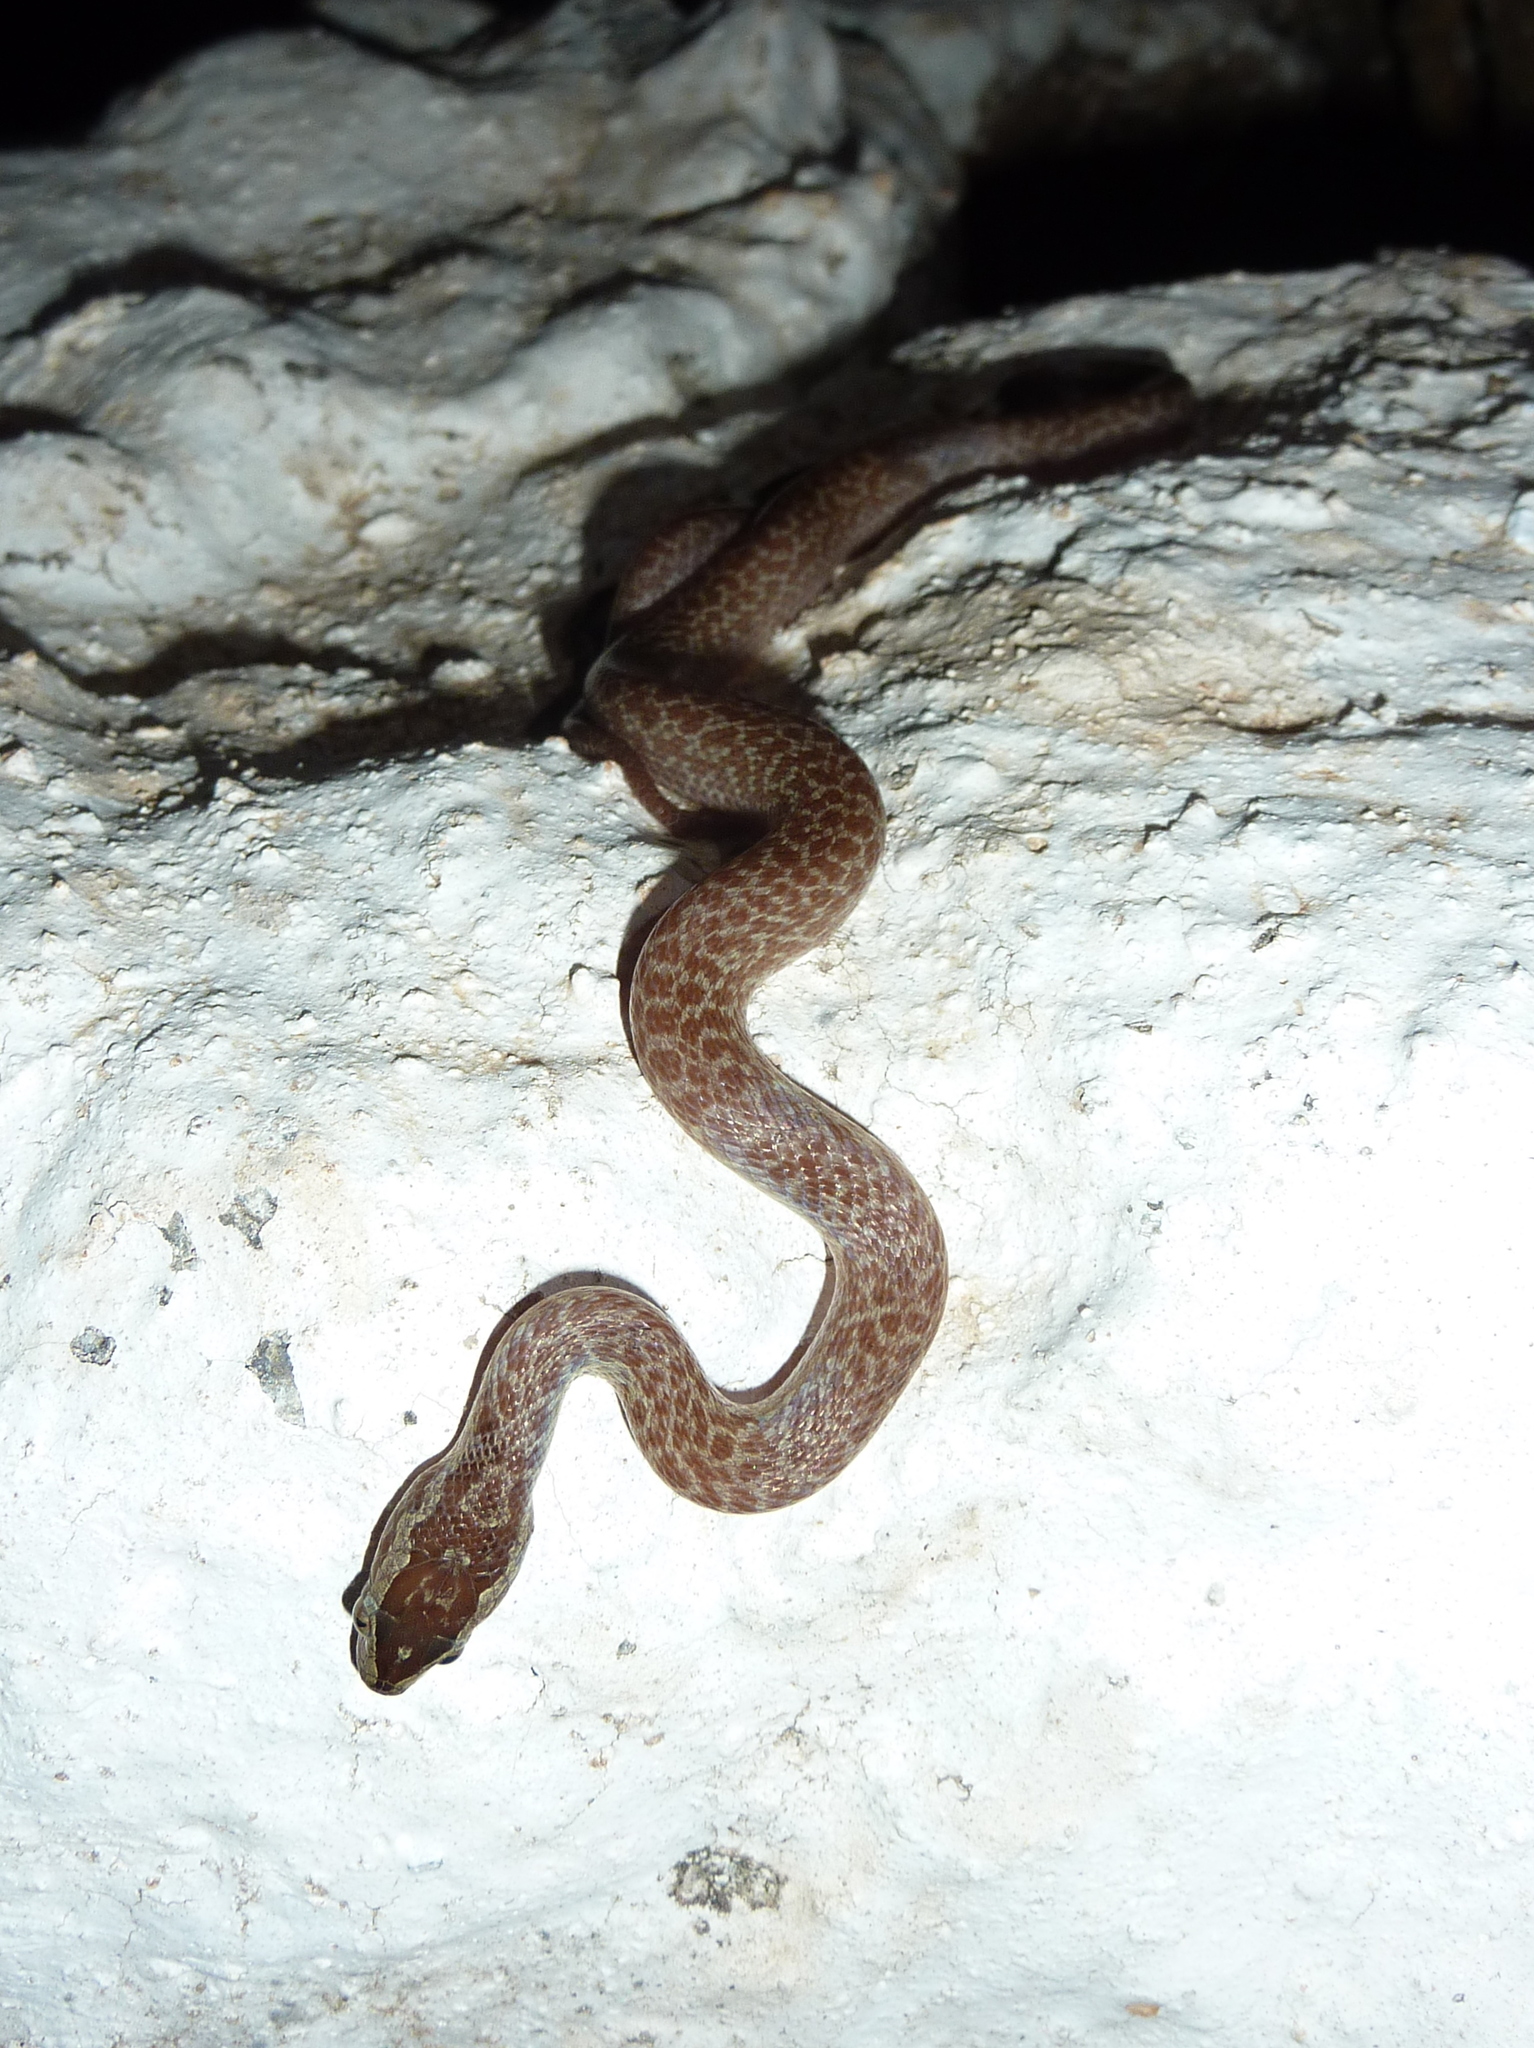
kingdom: Animalia
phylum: Chordata
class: Squamata
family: Lamprophiidae
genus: Boaedon
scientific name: Boaedon fuliginosus
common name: African house snake
